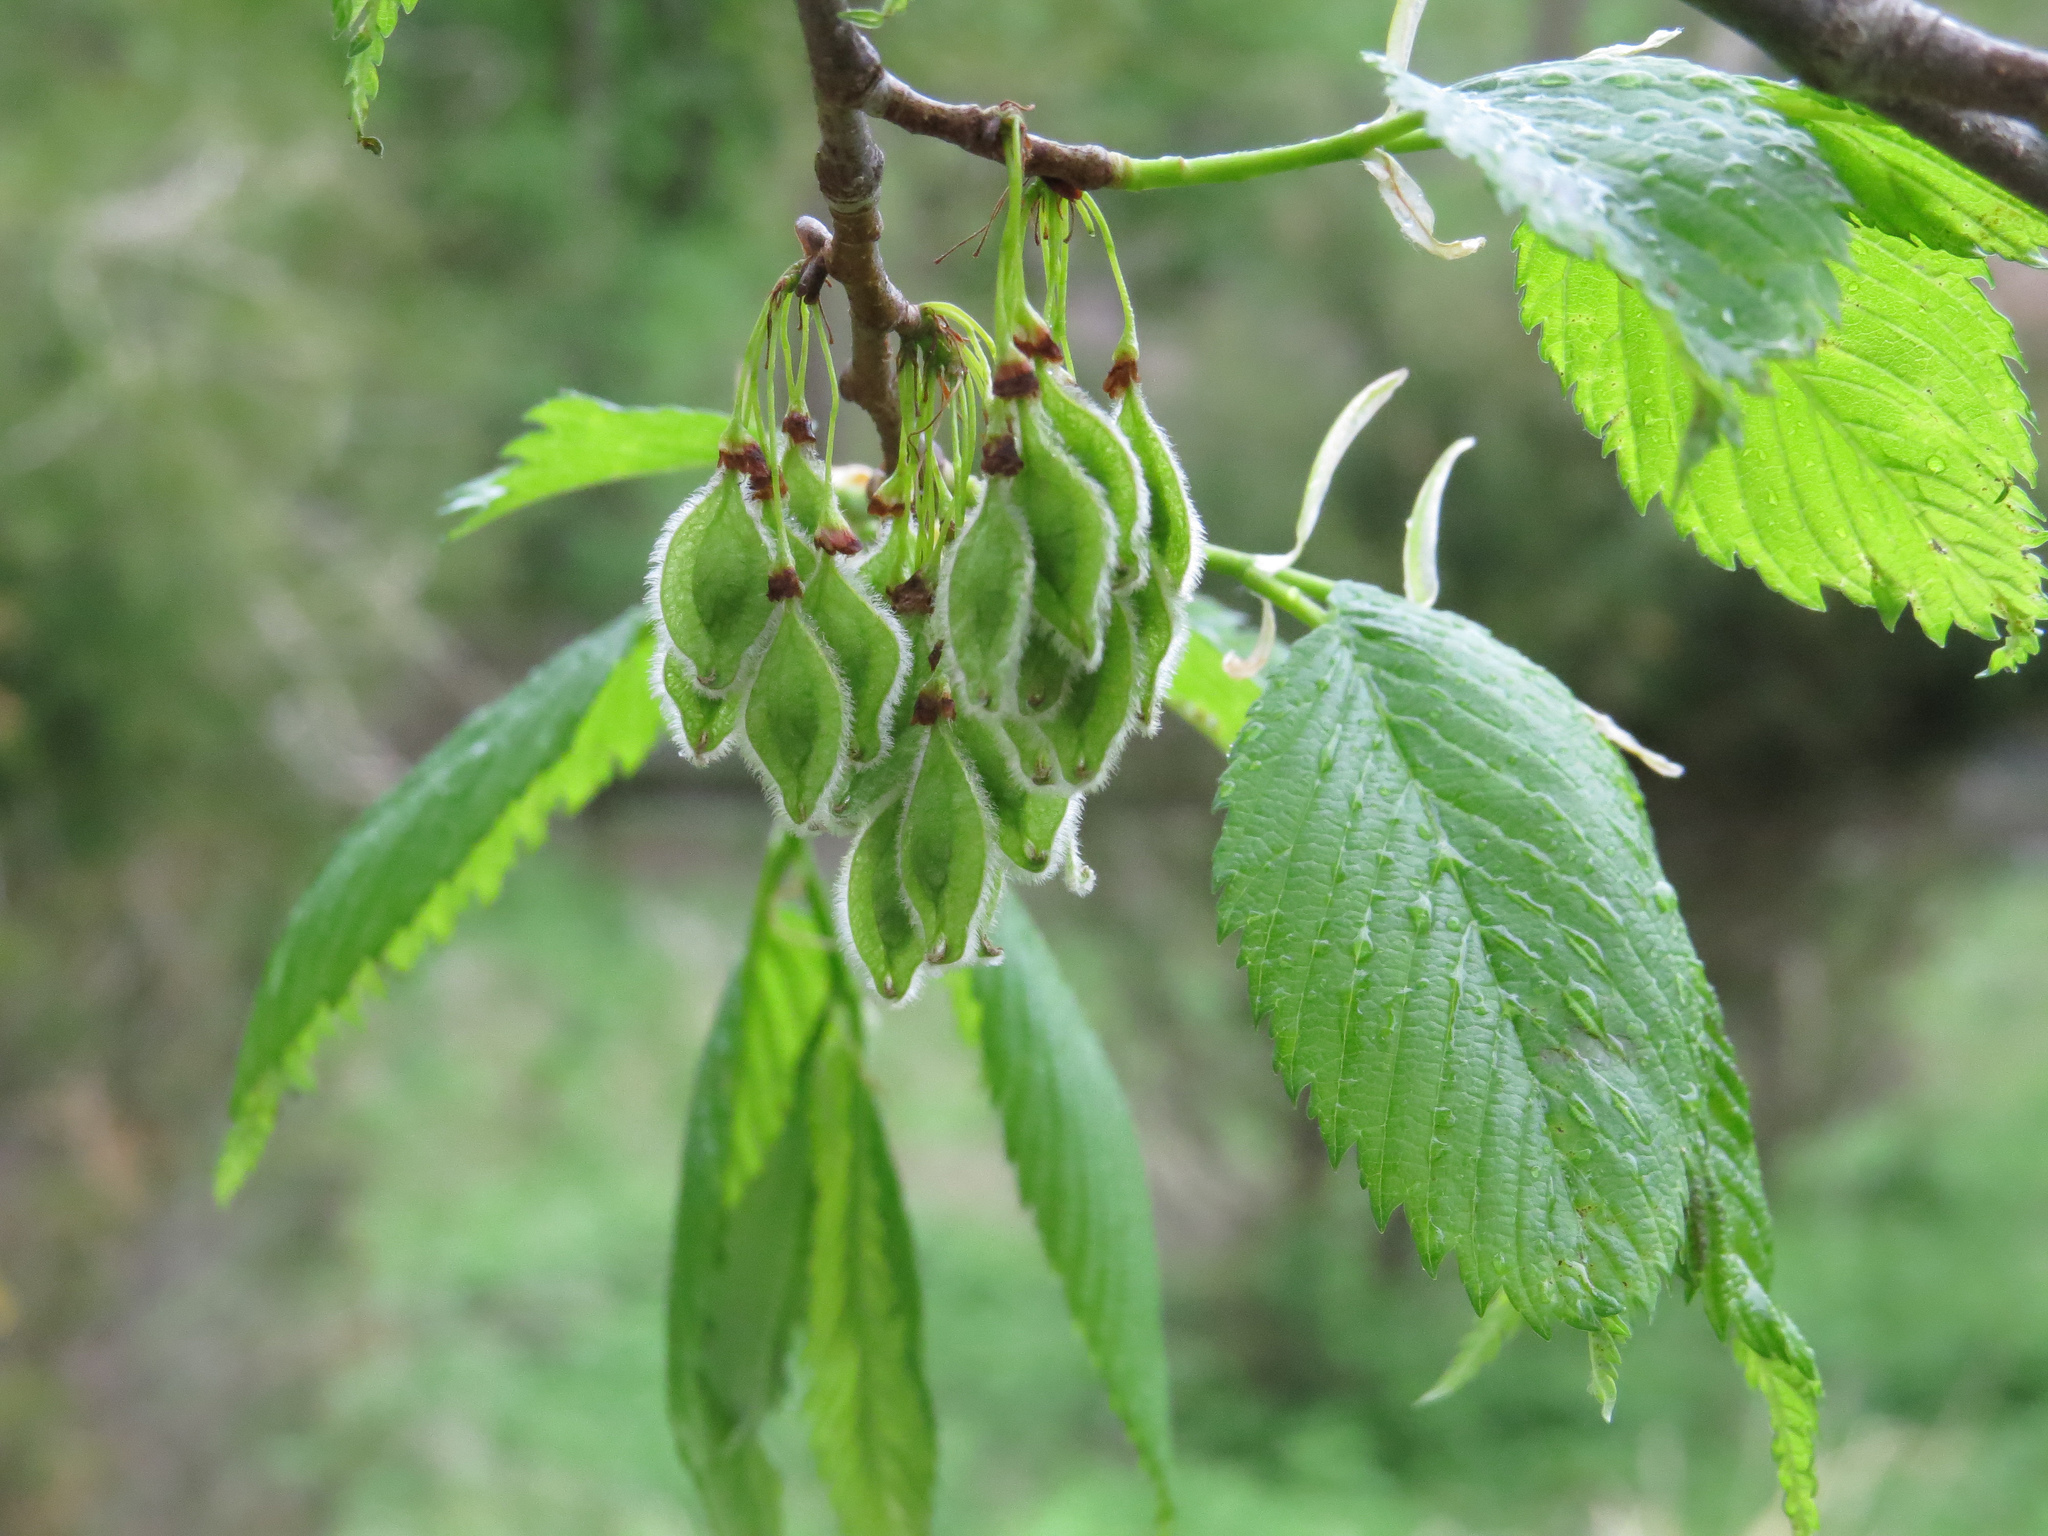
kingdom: Plantae
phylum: Tracheophyta
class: Magnoliopsida
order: Rosales
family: Ulmaceae
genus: Ulmus
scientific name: Ulmus americana
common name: American elm
